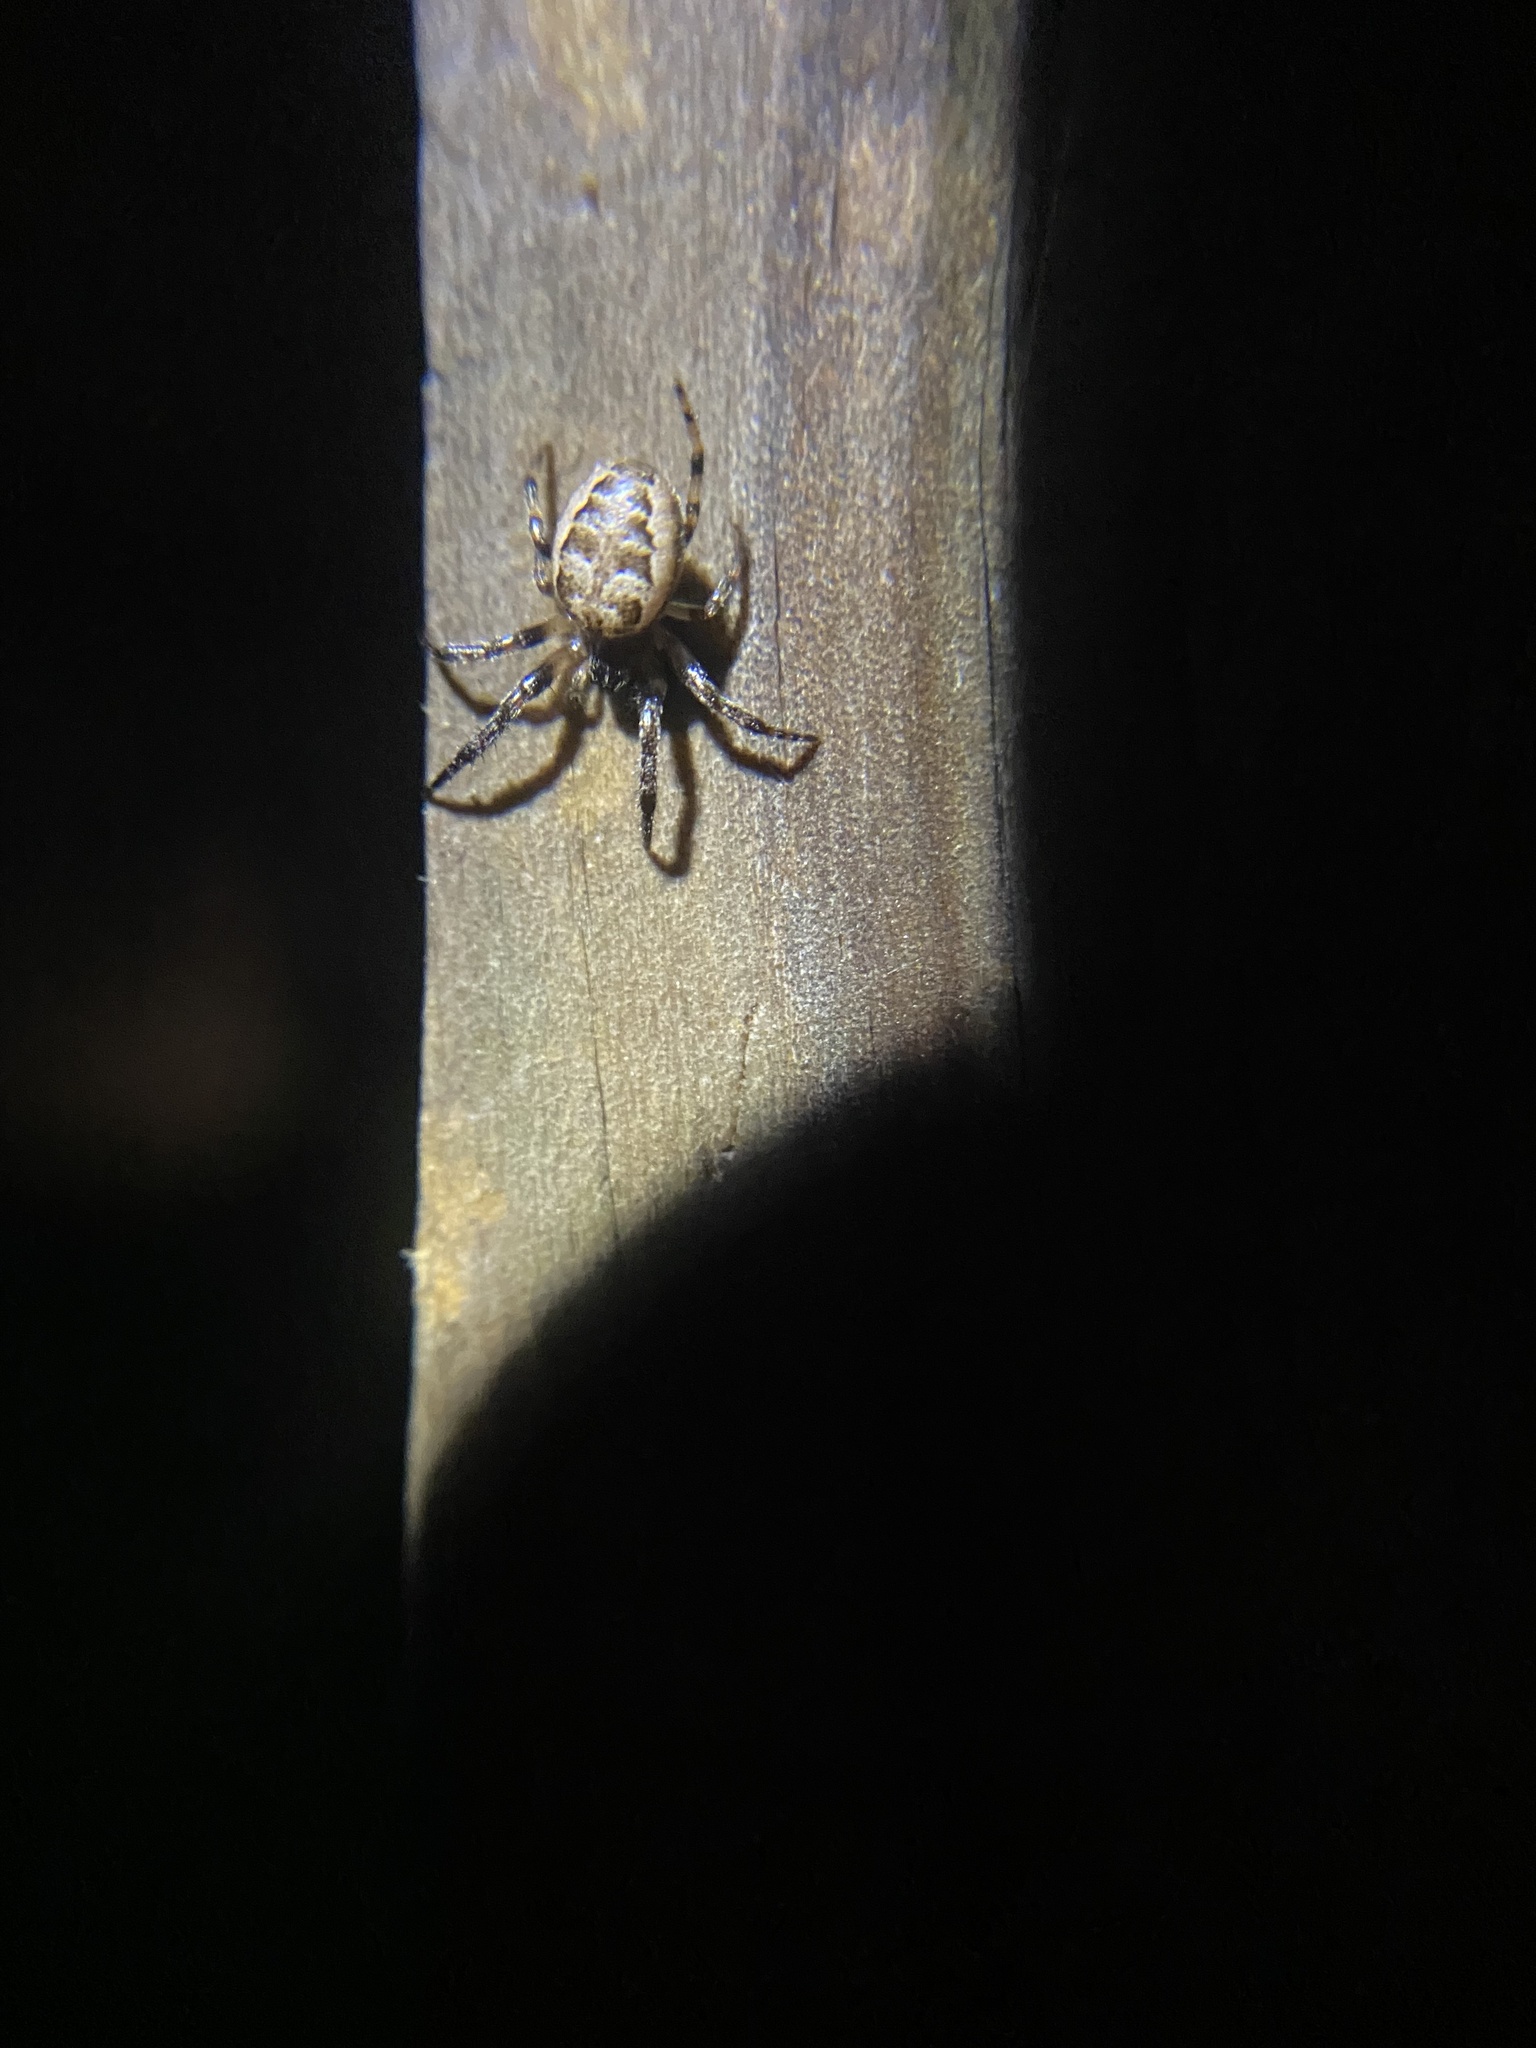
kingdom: Animalia
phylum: Arthropoda
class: Arachnida
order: Araneae
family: Araneidae
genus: Larinioides
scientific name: Larinioides cornutus
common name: Furrow orbweaver
